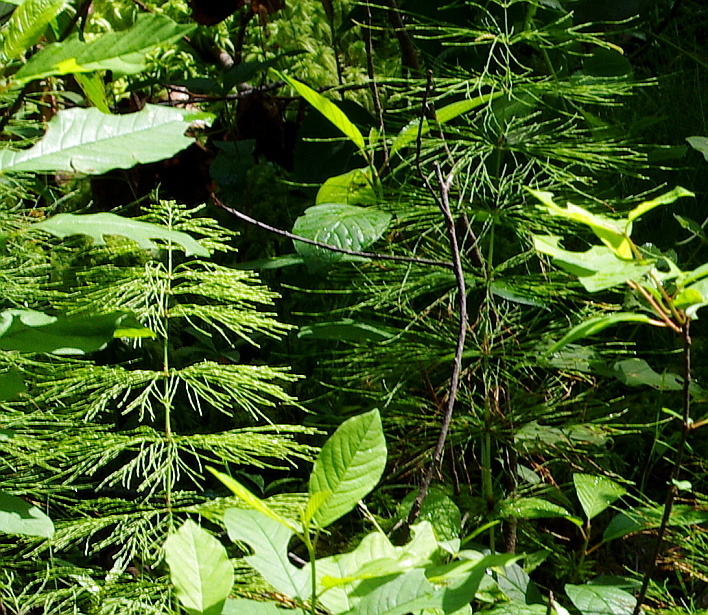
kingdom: Plantae
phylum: Tracheophyta
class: Polypodiopsida
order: Equisetales
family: Equisetaceae
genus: Equisetum
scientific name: Equisetum sylvaticum
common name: Wood horsetail
